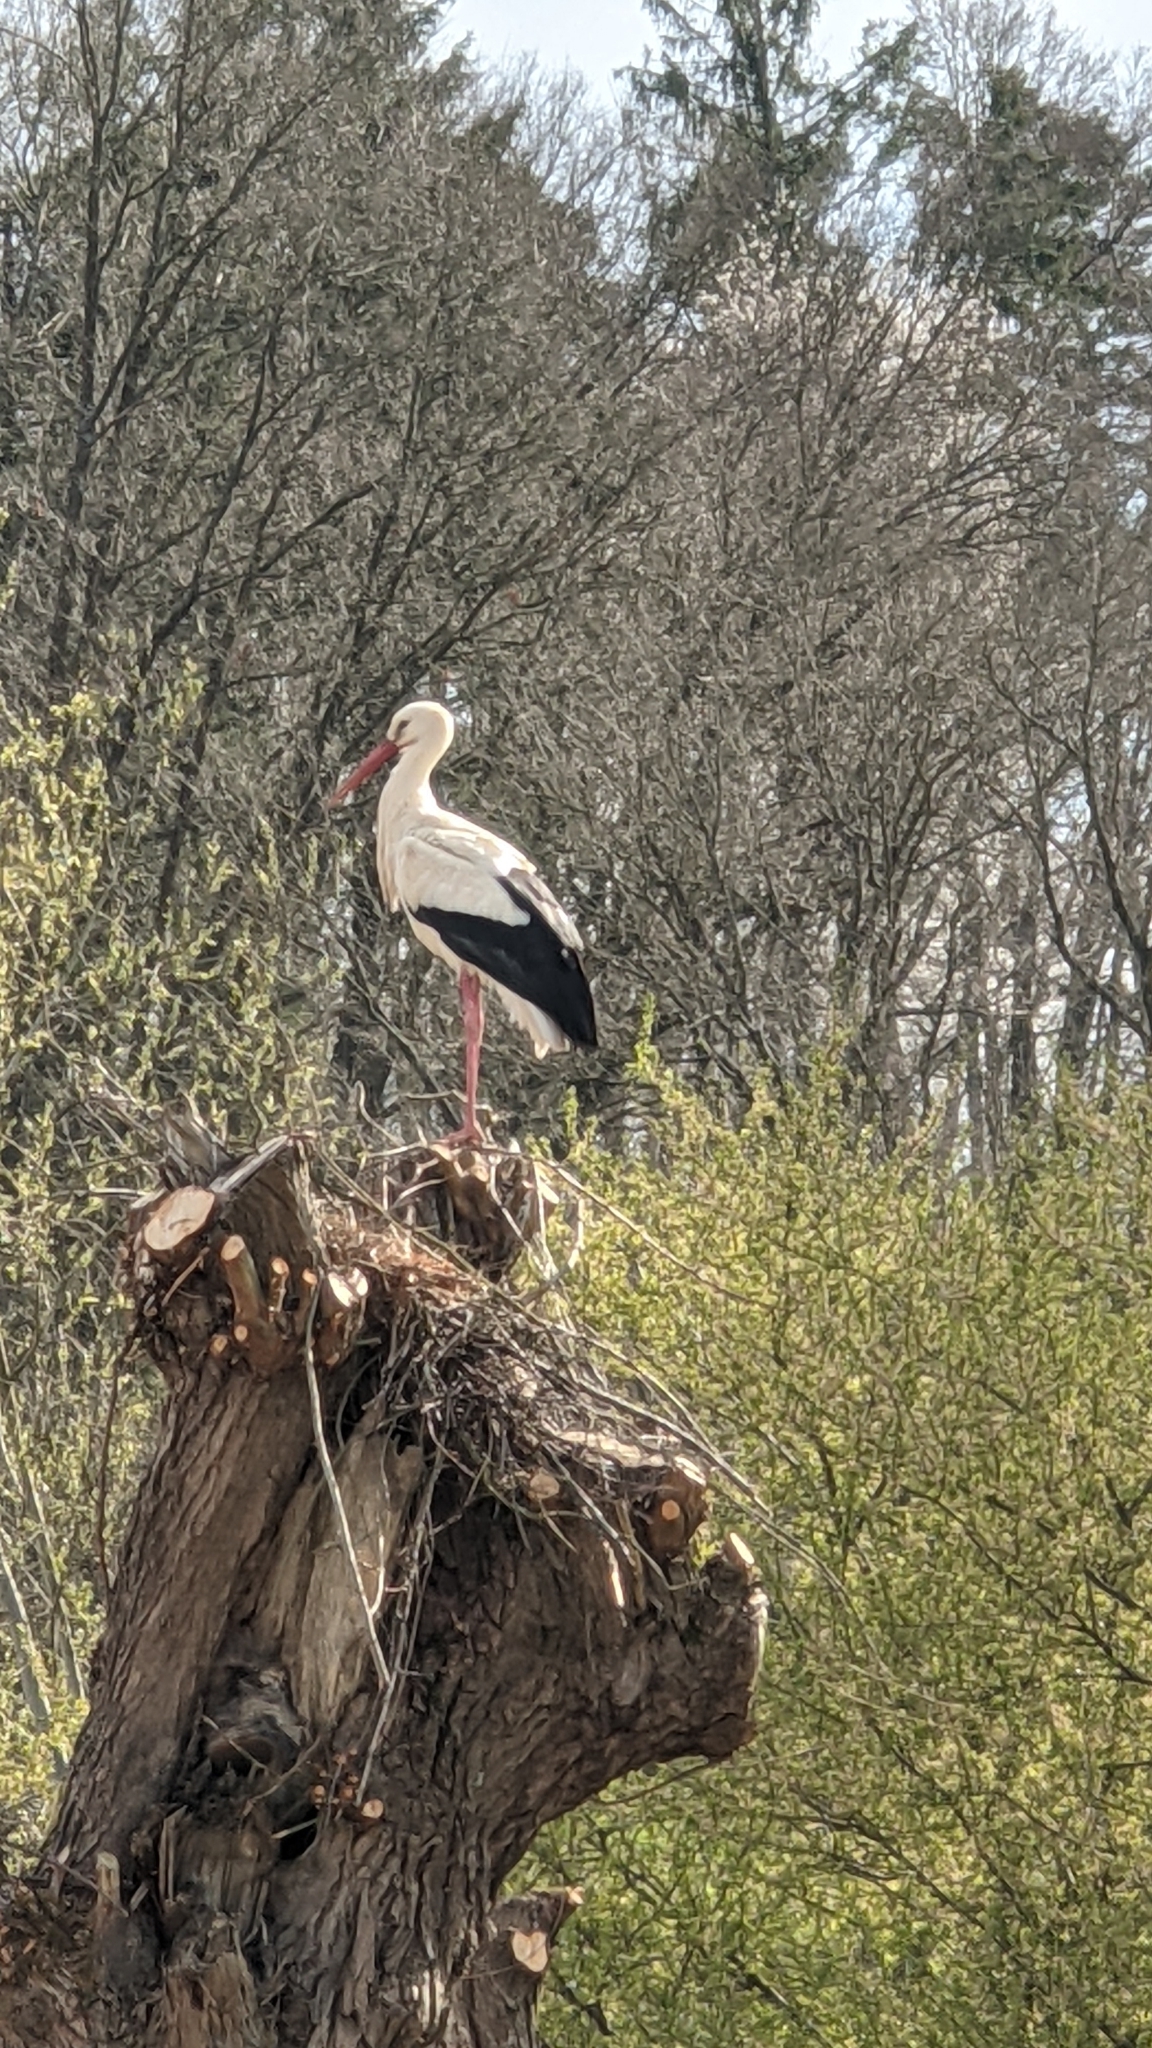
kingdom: Animalia
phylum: Chordata
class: Aves
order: Ciconiiformes
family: Ciconiidae
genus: Ciconia
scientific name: Ciconia ciconia
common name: White stork
